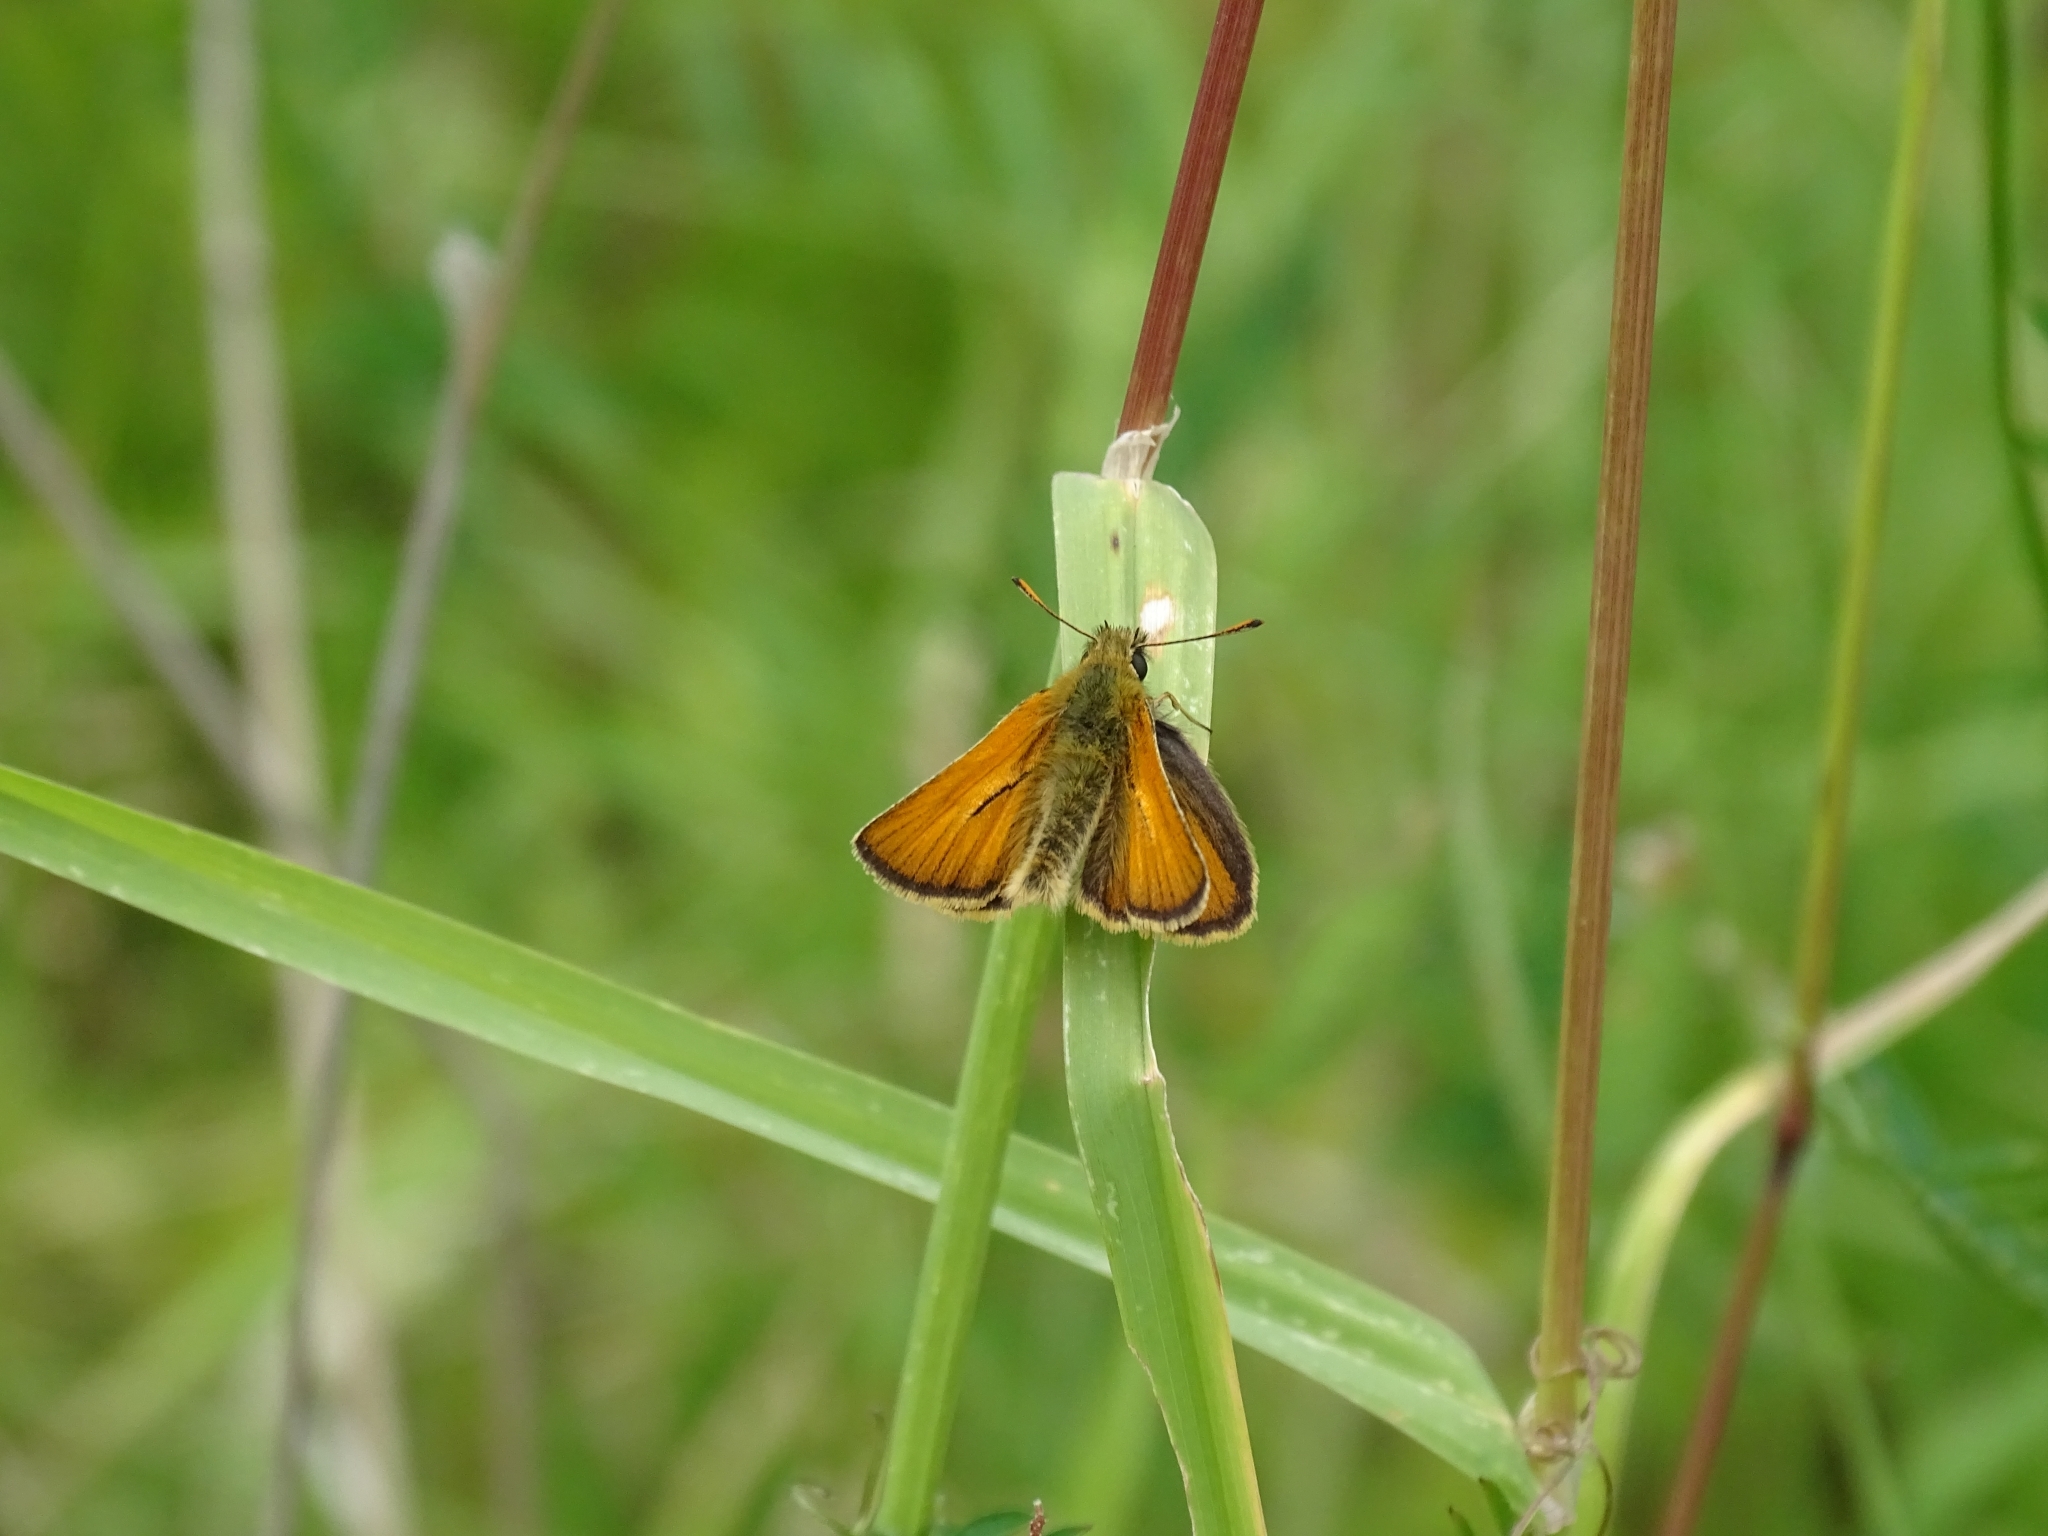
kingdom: Animalia
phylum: Arthropoda
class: Insecta
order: Lepidoptera
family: Hesperiidae
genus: Thymelicus
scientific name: Thymelicus sylvestris
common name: Small skipper
